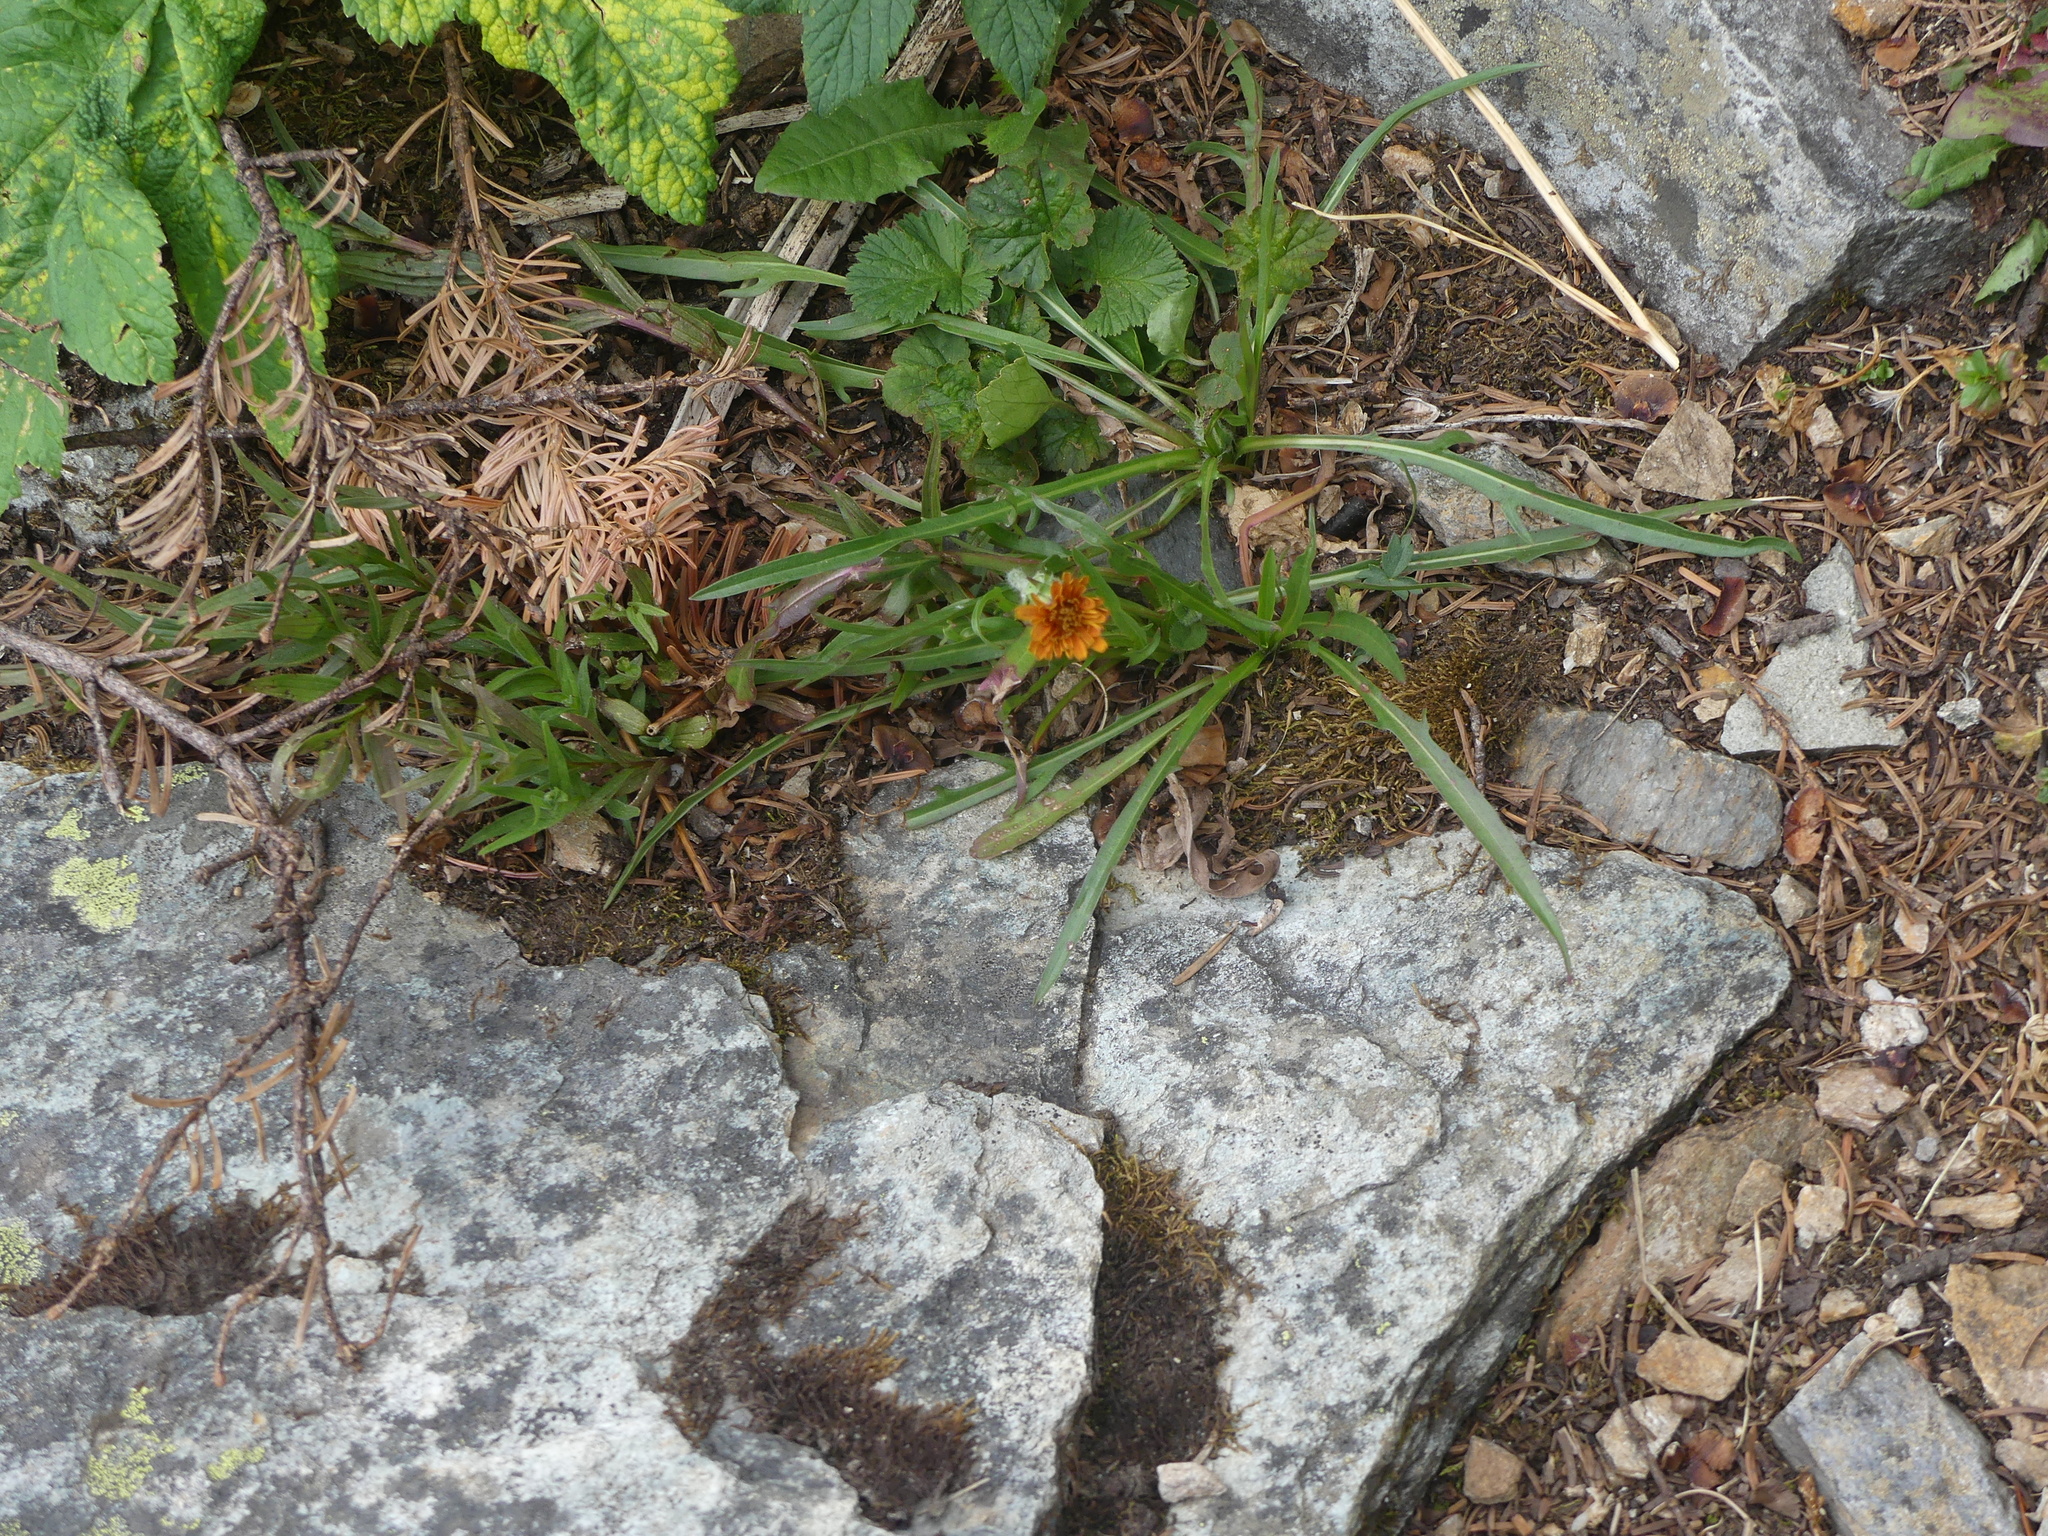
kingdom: Plantae
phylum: Tracheophyta
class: Magnoliopsida
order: Asterales
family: Asteraceae
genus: Agoseris
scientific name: Agoseris aurantiaca
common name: Mountain agoseris
